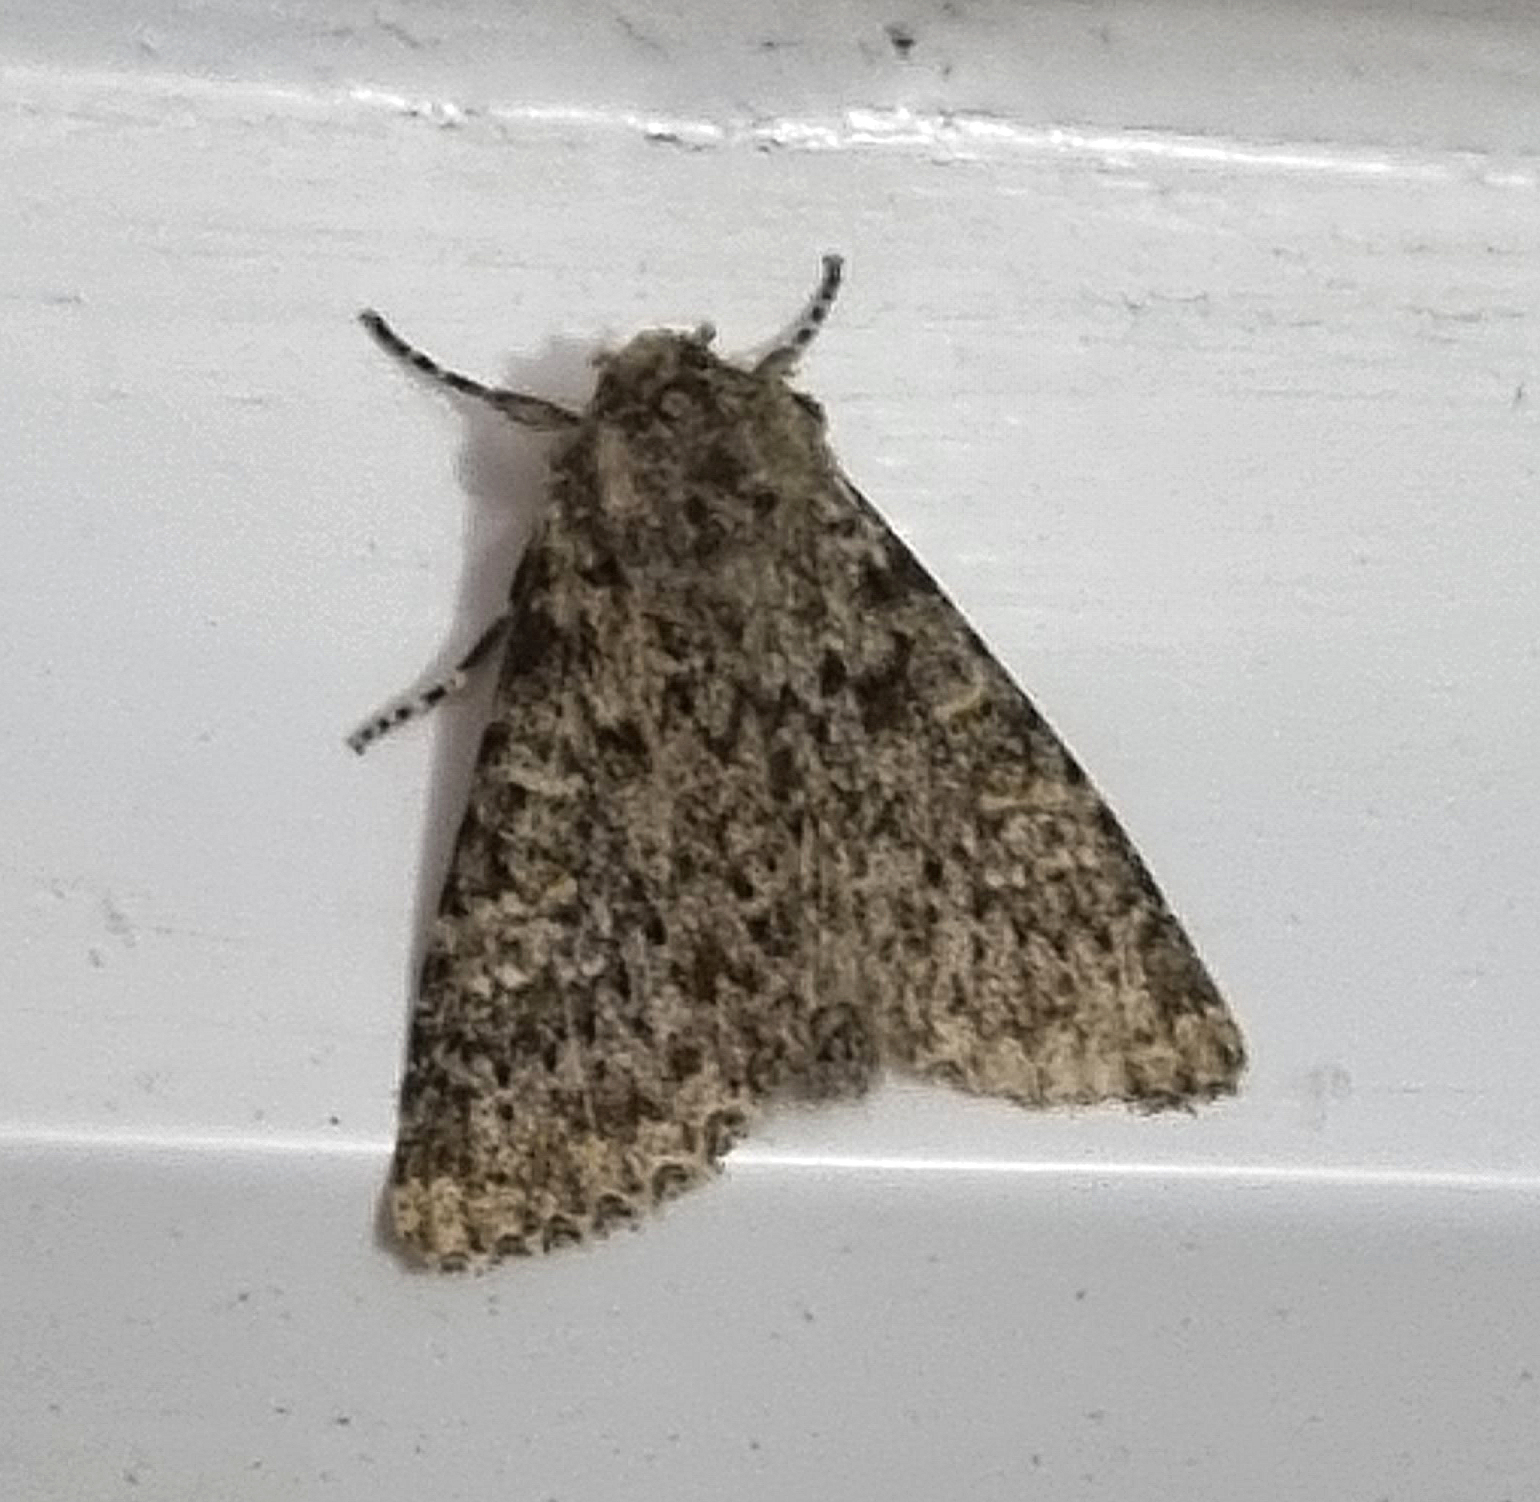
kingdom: Animalia
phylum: Arthropoda
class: Insecta
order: Lepidoptera
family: Noctuidae
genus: Polymixis
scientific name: Polymixis flavicincta
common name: Large ranunculus
